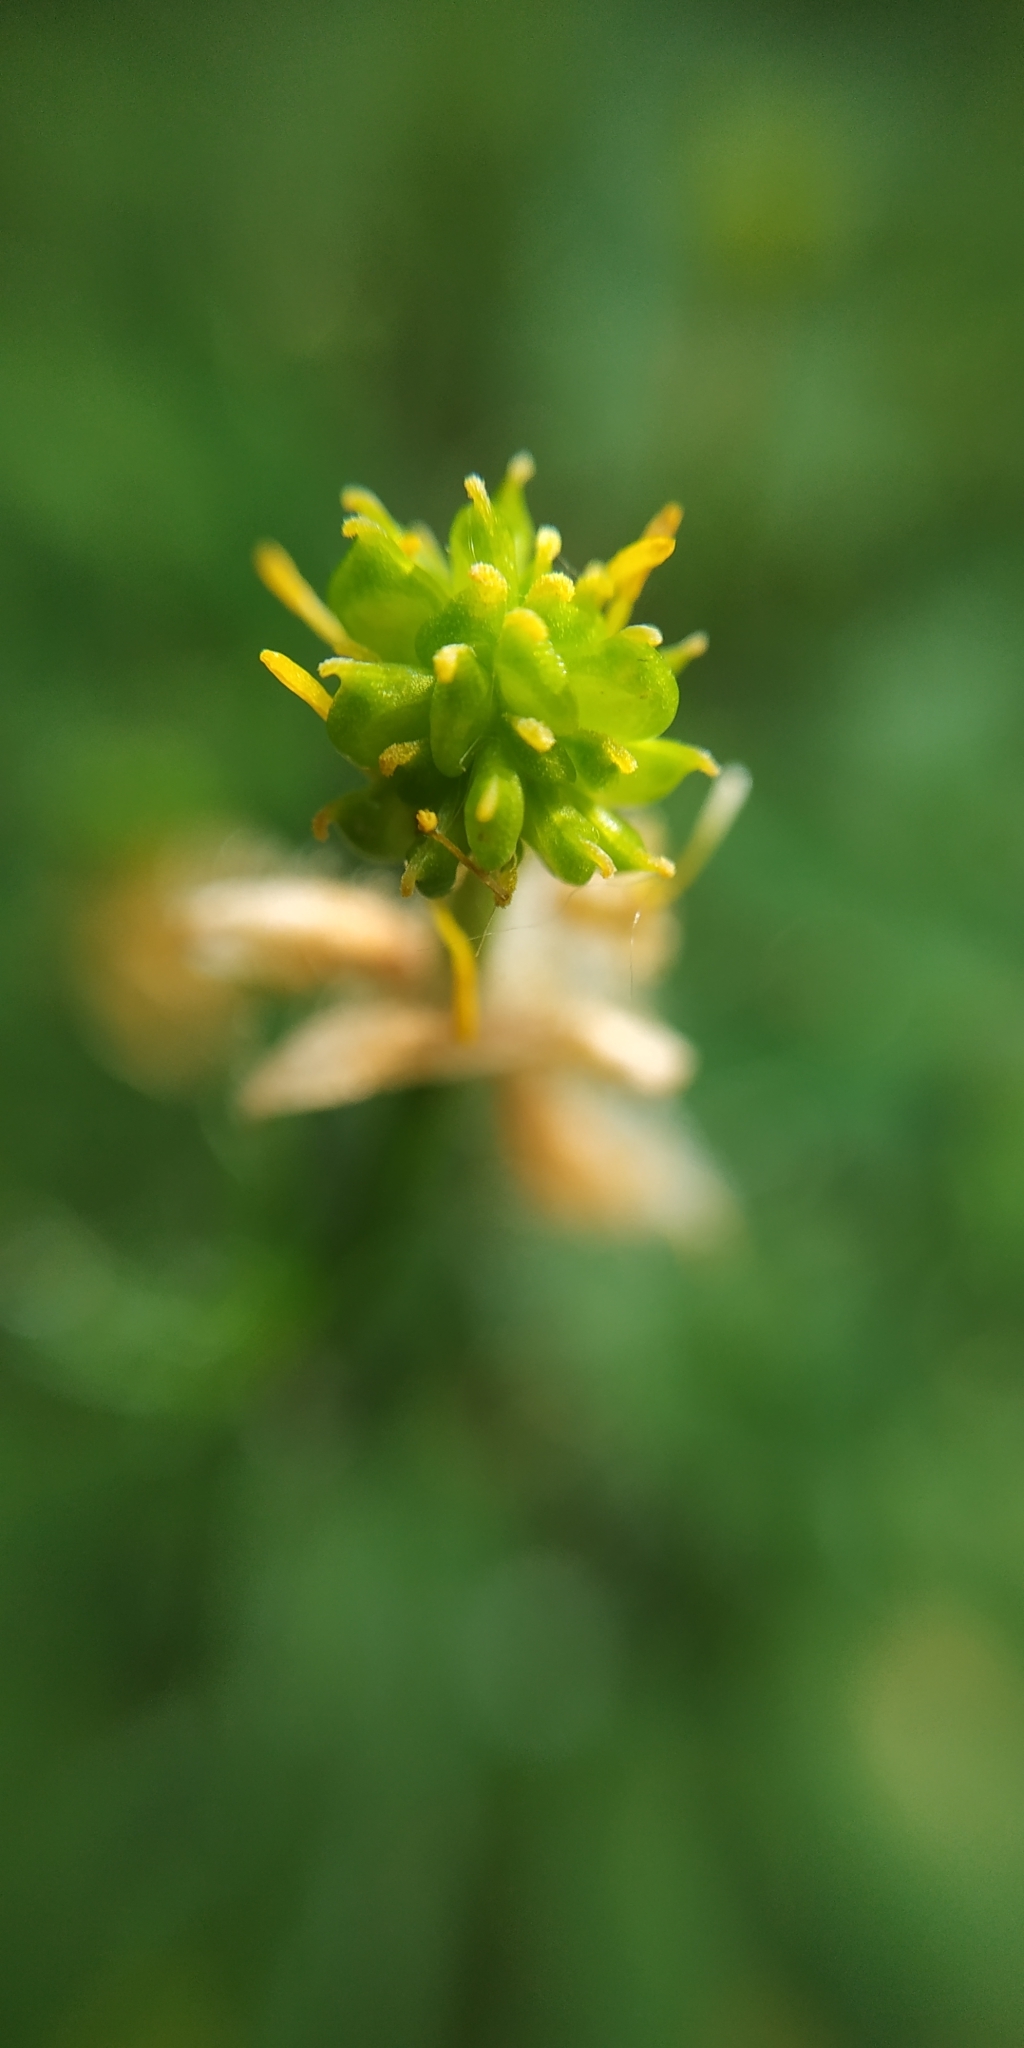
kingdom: Plantae
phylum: Tracheophyta
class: Magnoliopsida
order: Ranunculales
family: Ranunculaceae
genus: Ranunculus
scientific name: Ranunculus polyanthemos
